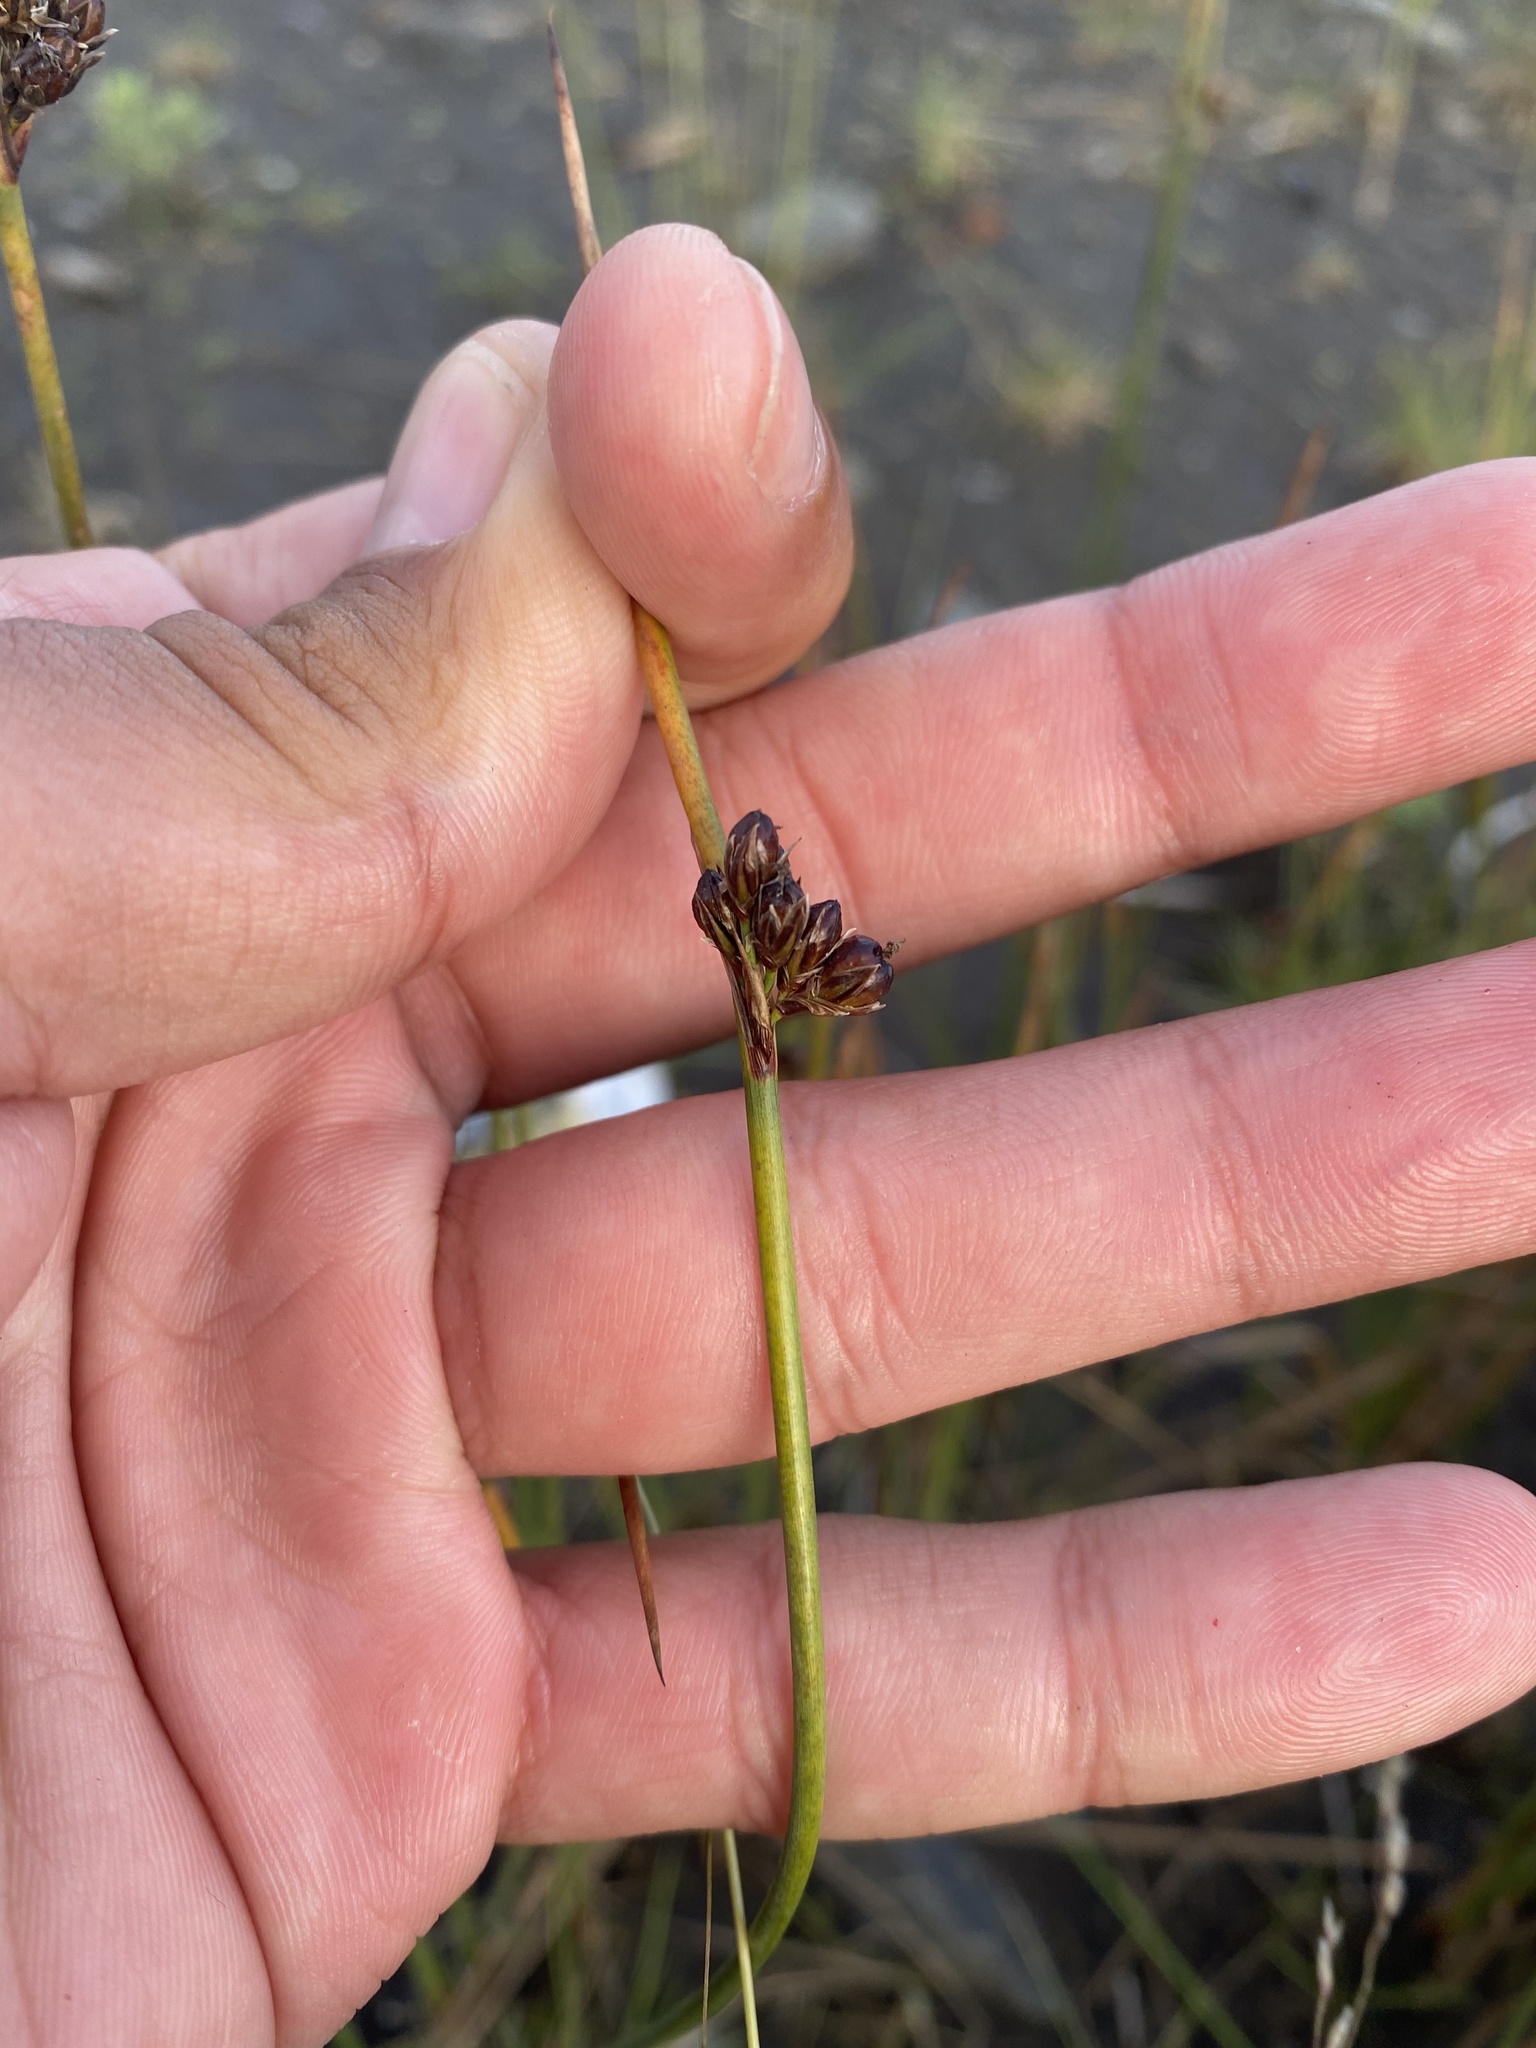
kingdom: Plantae
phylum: Tracheophyta
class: Liliopsida
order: Poales
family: Juncaceae
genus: Juncus
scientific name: Juncus arcticus
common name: Arctic rush
